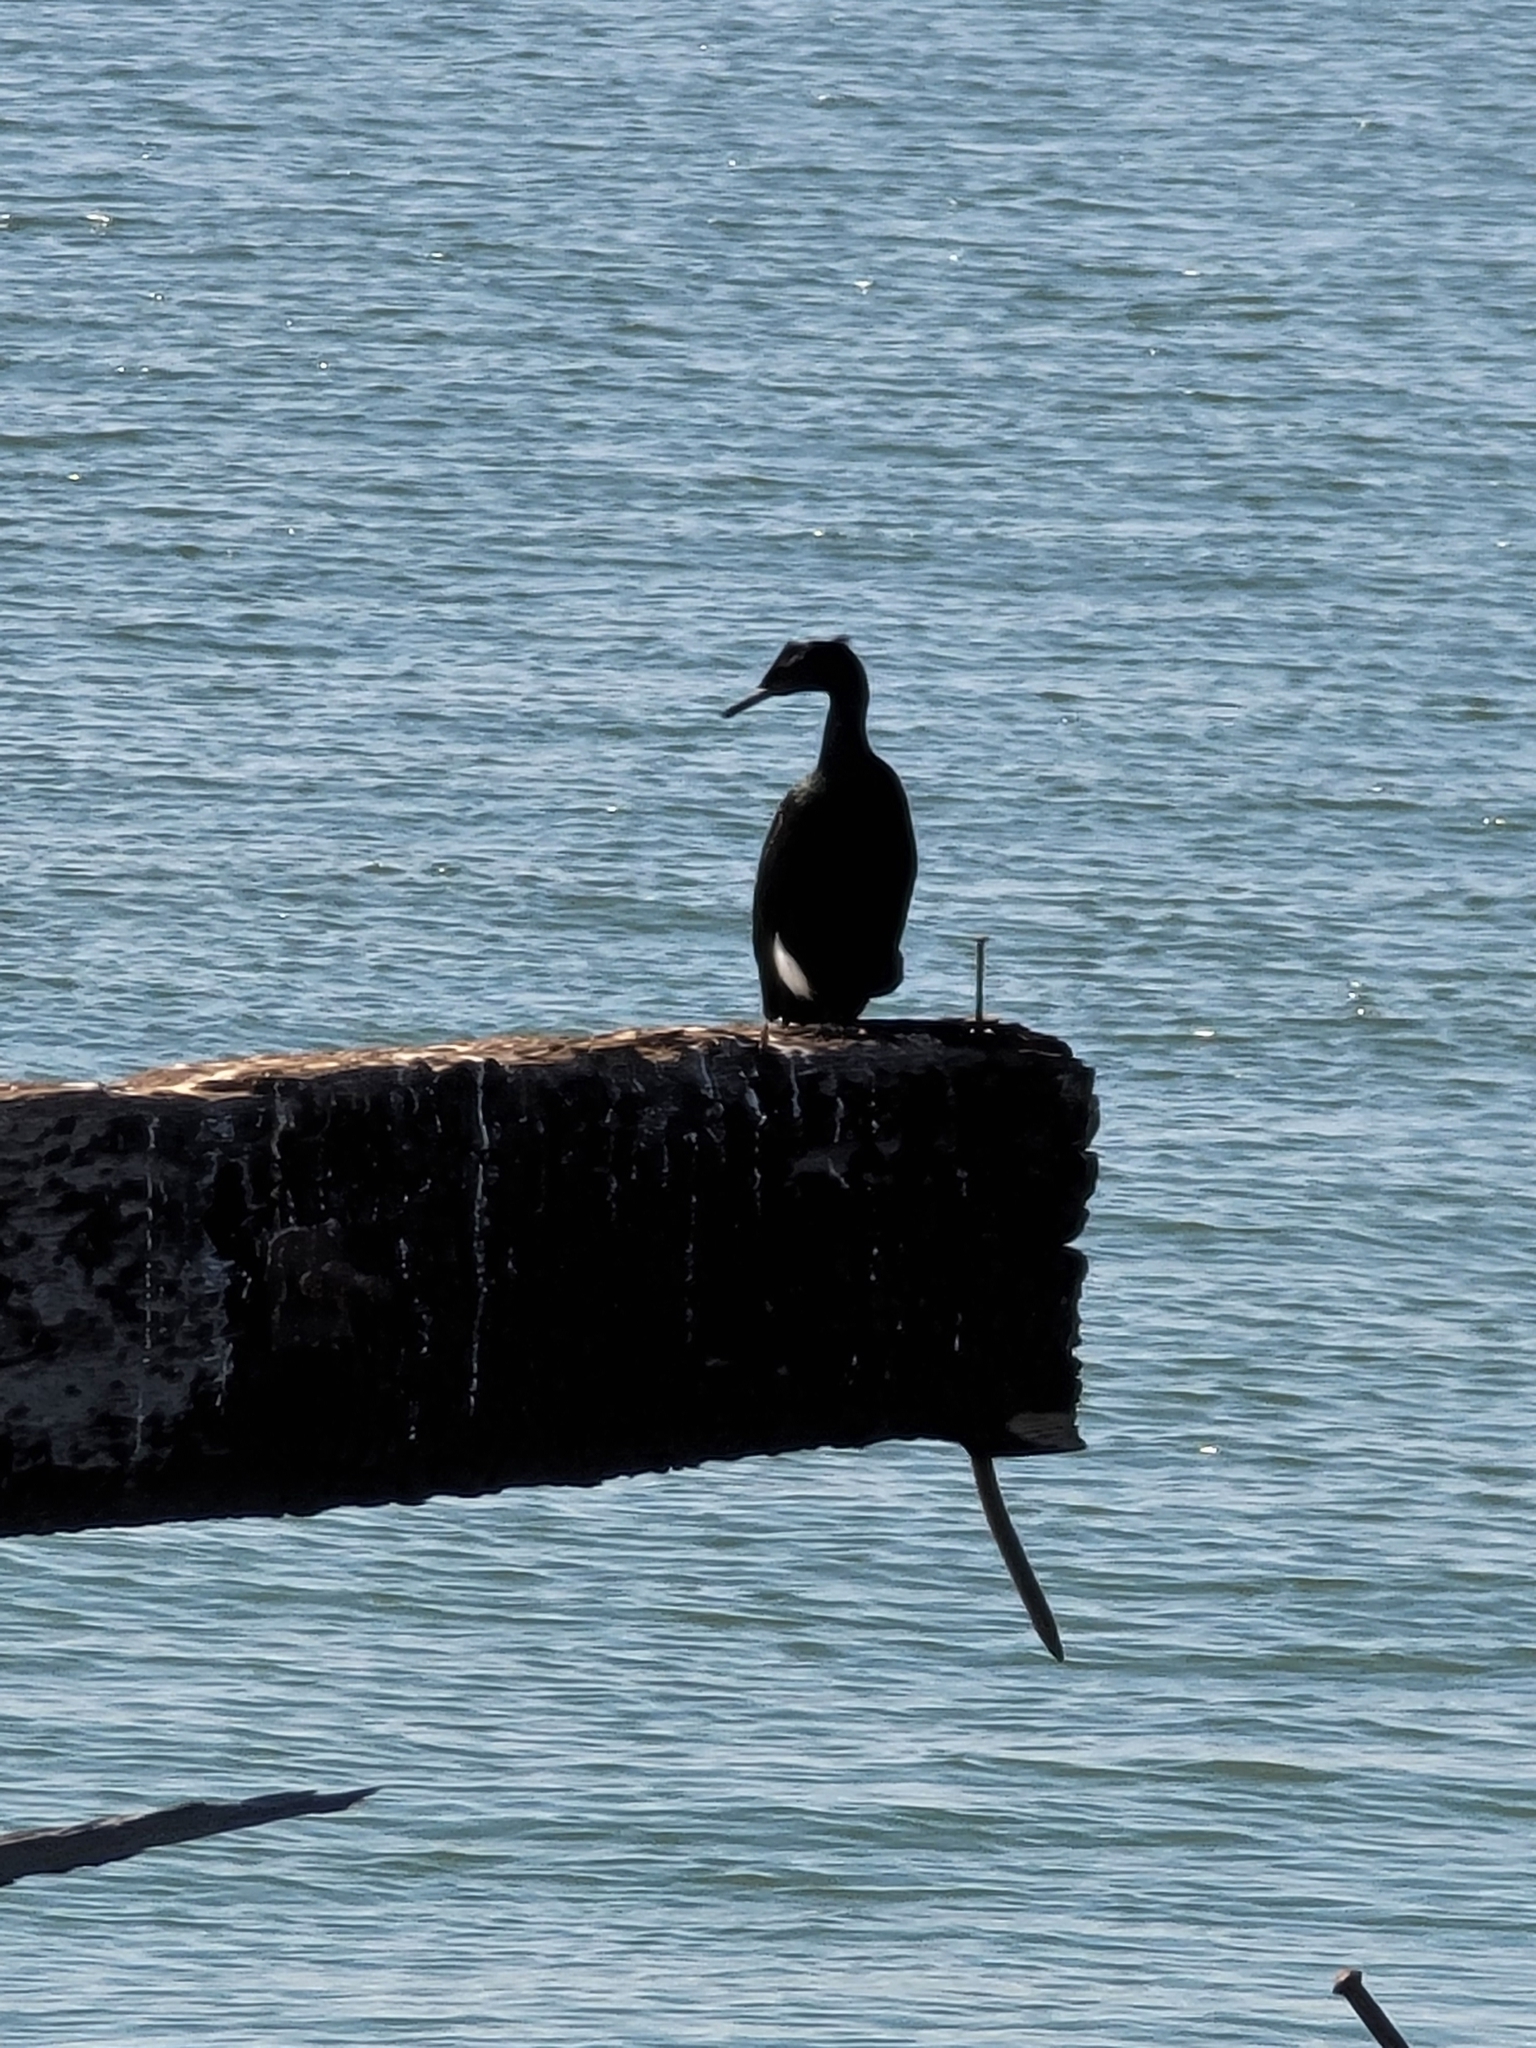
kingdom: Animalia
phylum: Chordata
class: Aves
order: Suliformes
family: Phalacrocoracidae
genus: Phalacrocorax
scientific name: Phalacrocorax pelagicus
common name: Pelagic cormorant
